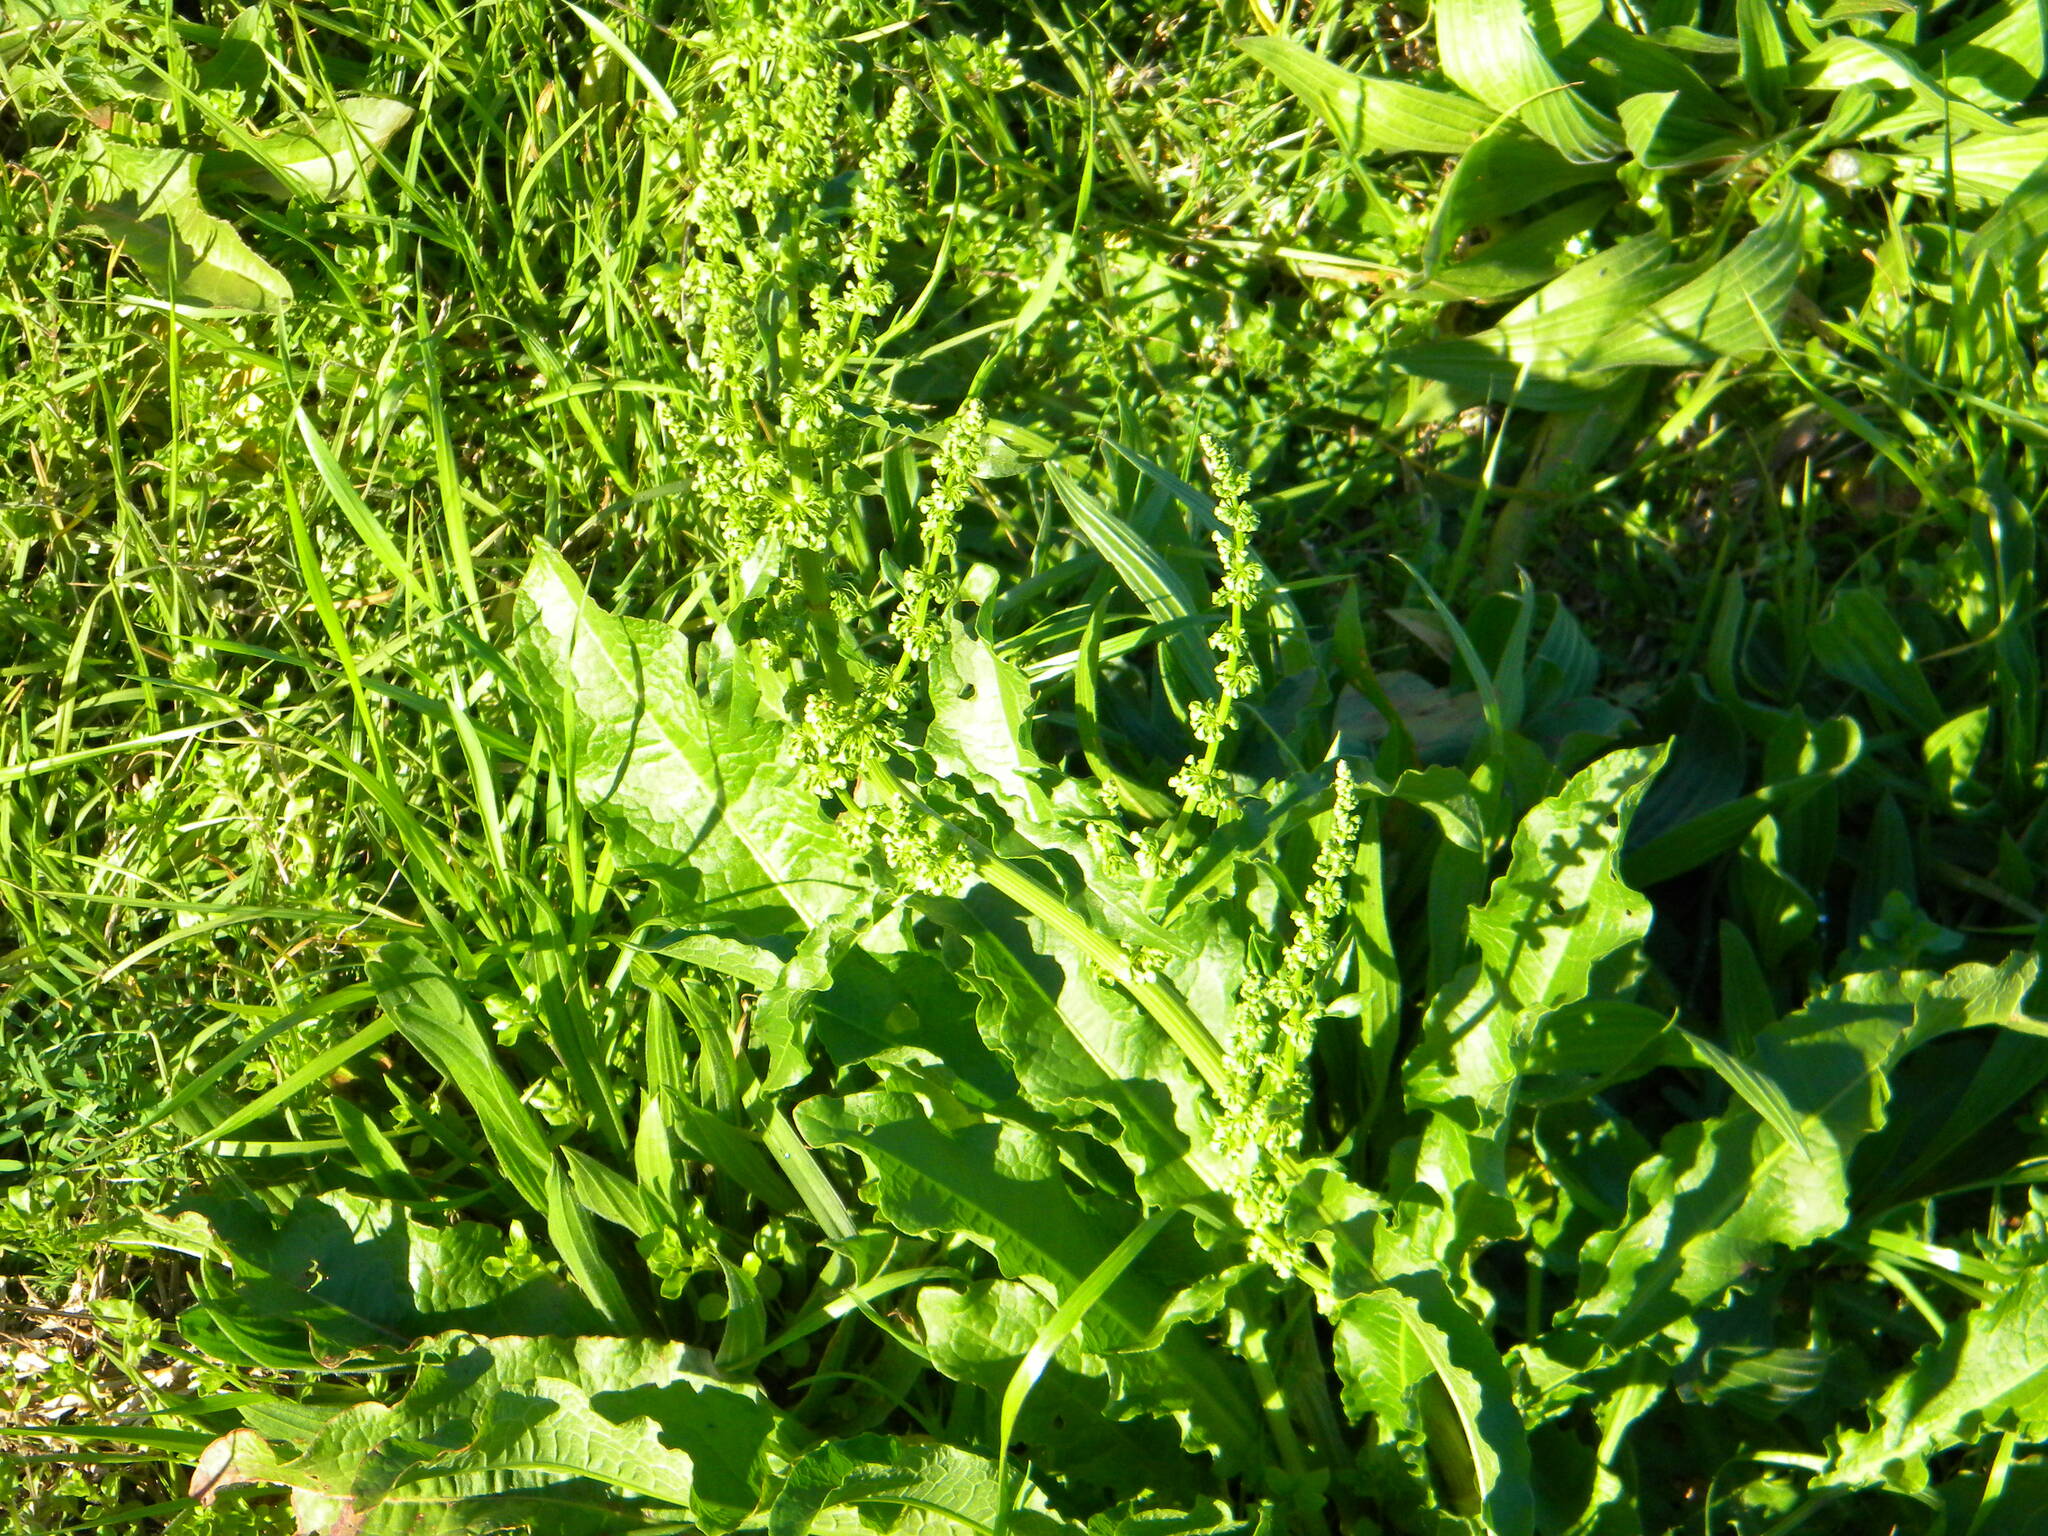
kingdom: Plantae
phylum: Tracheophyta
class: Magnoliopsida
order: Caryophyllales
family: Polygonaceae
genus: Rumex
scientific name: Rumex crispus
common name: Curled dock
